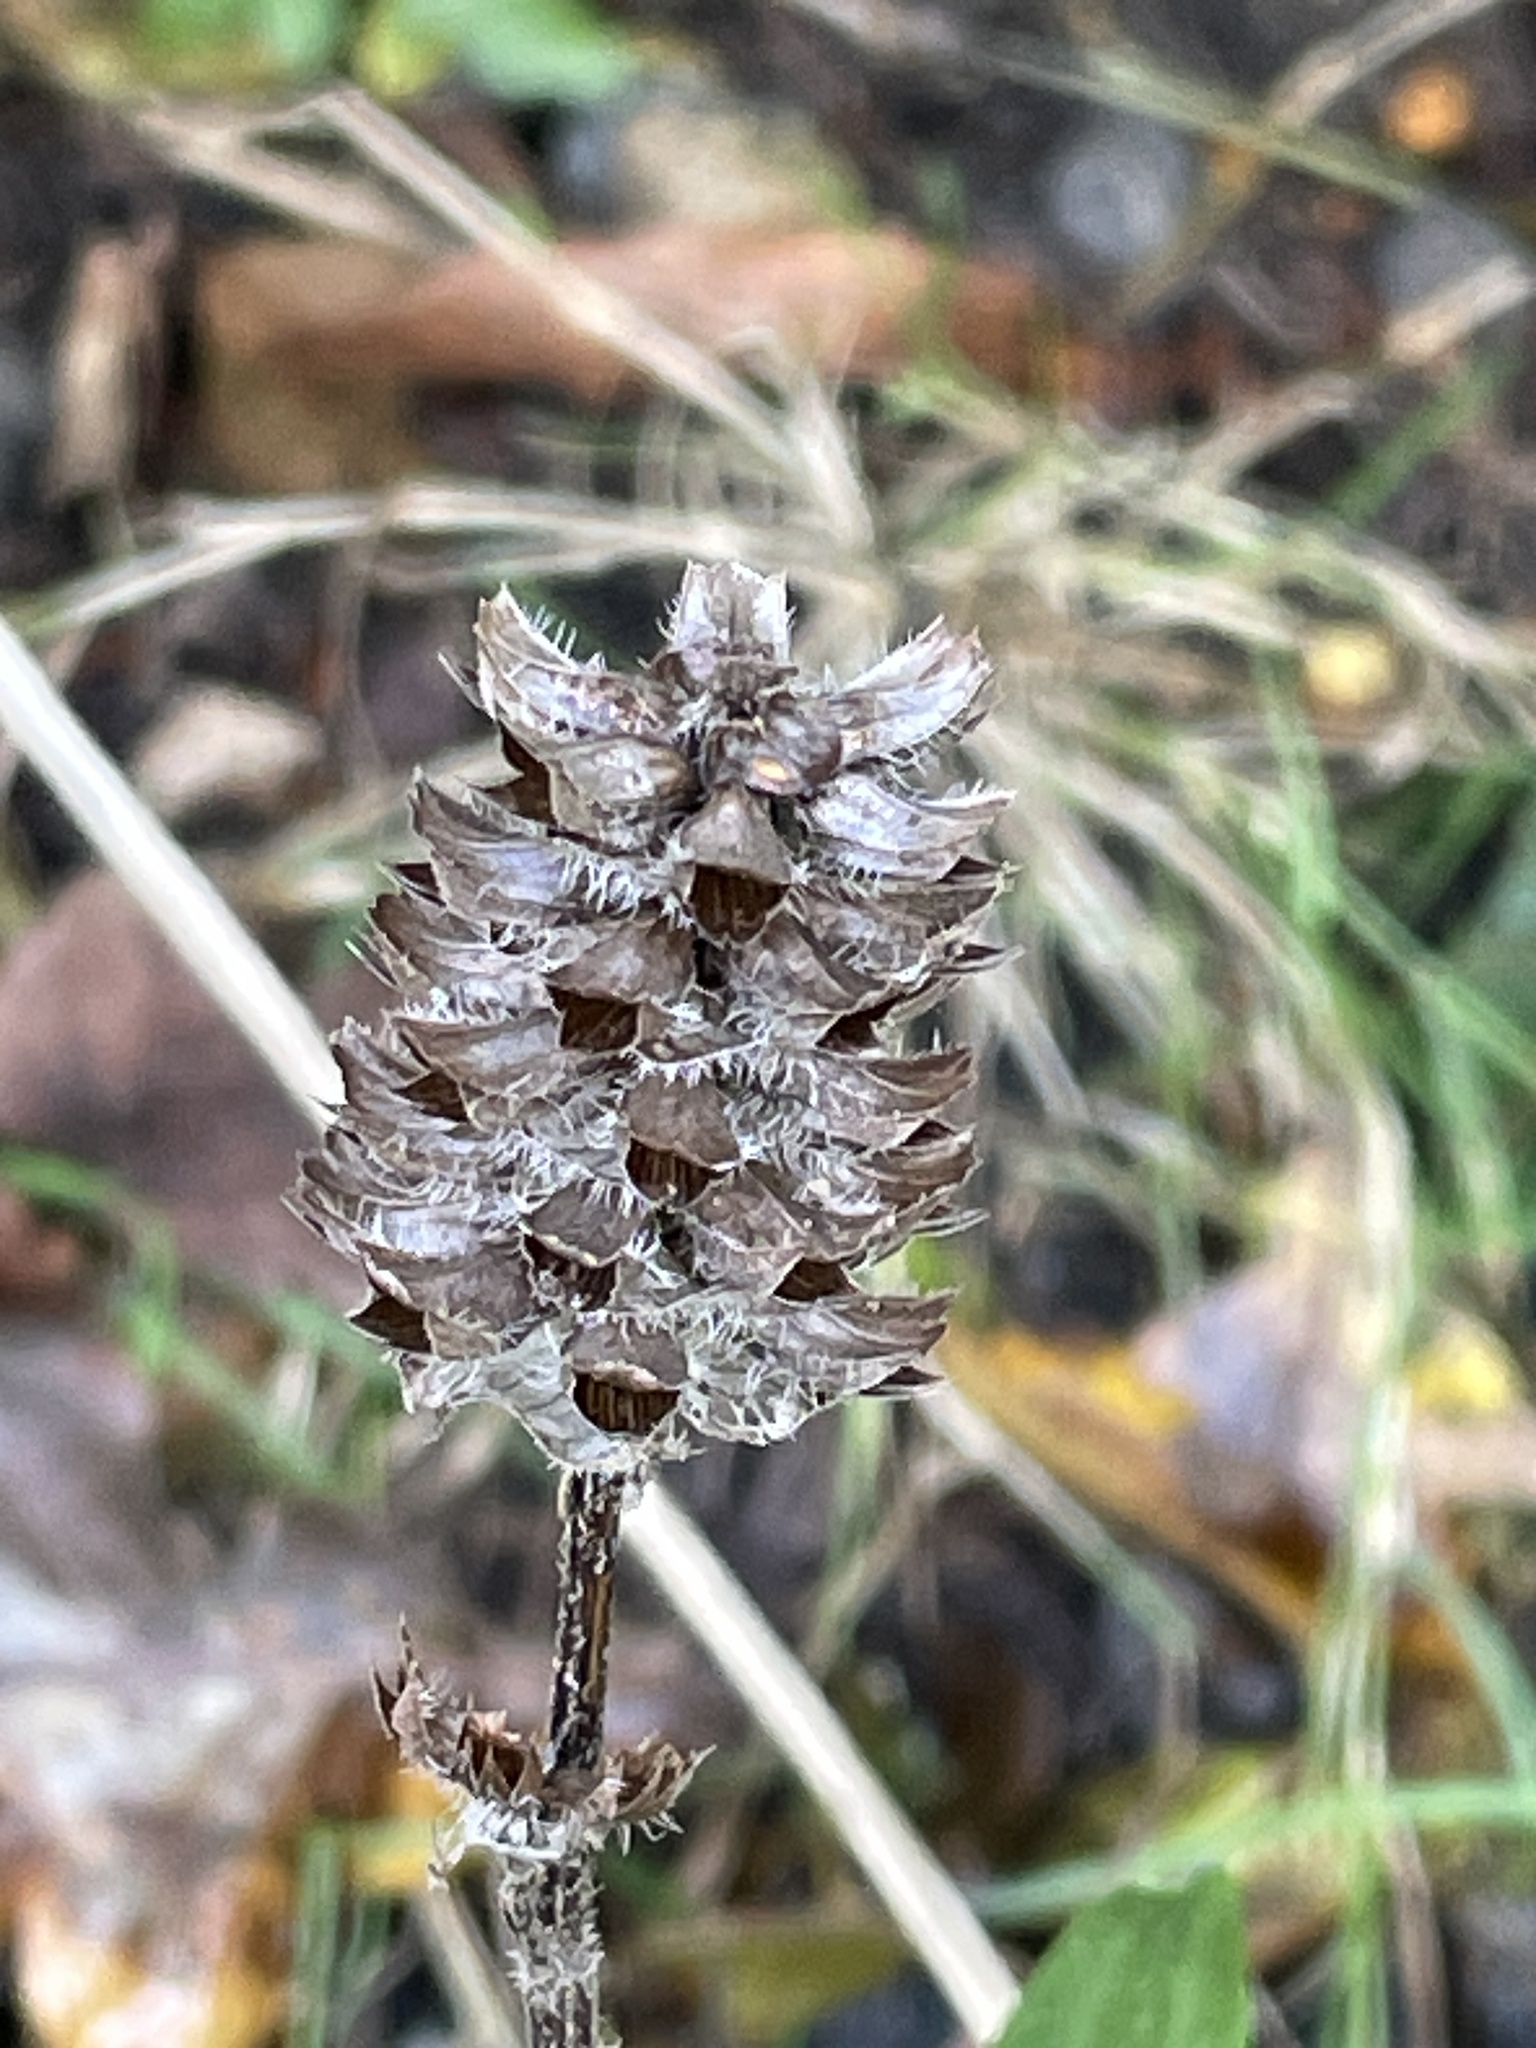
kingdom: Plantae
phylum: Tracheophyta
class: Magnoliopsida
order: Lamiales
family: Lamiaceae
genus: Prunella
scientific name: Prunella vulgaris
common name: Heal-all
